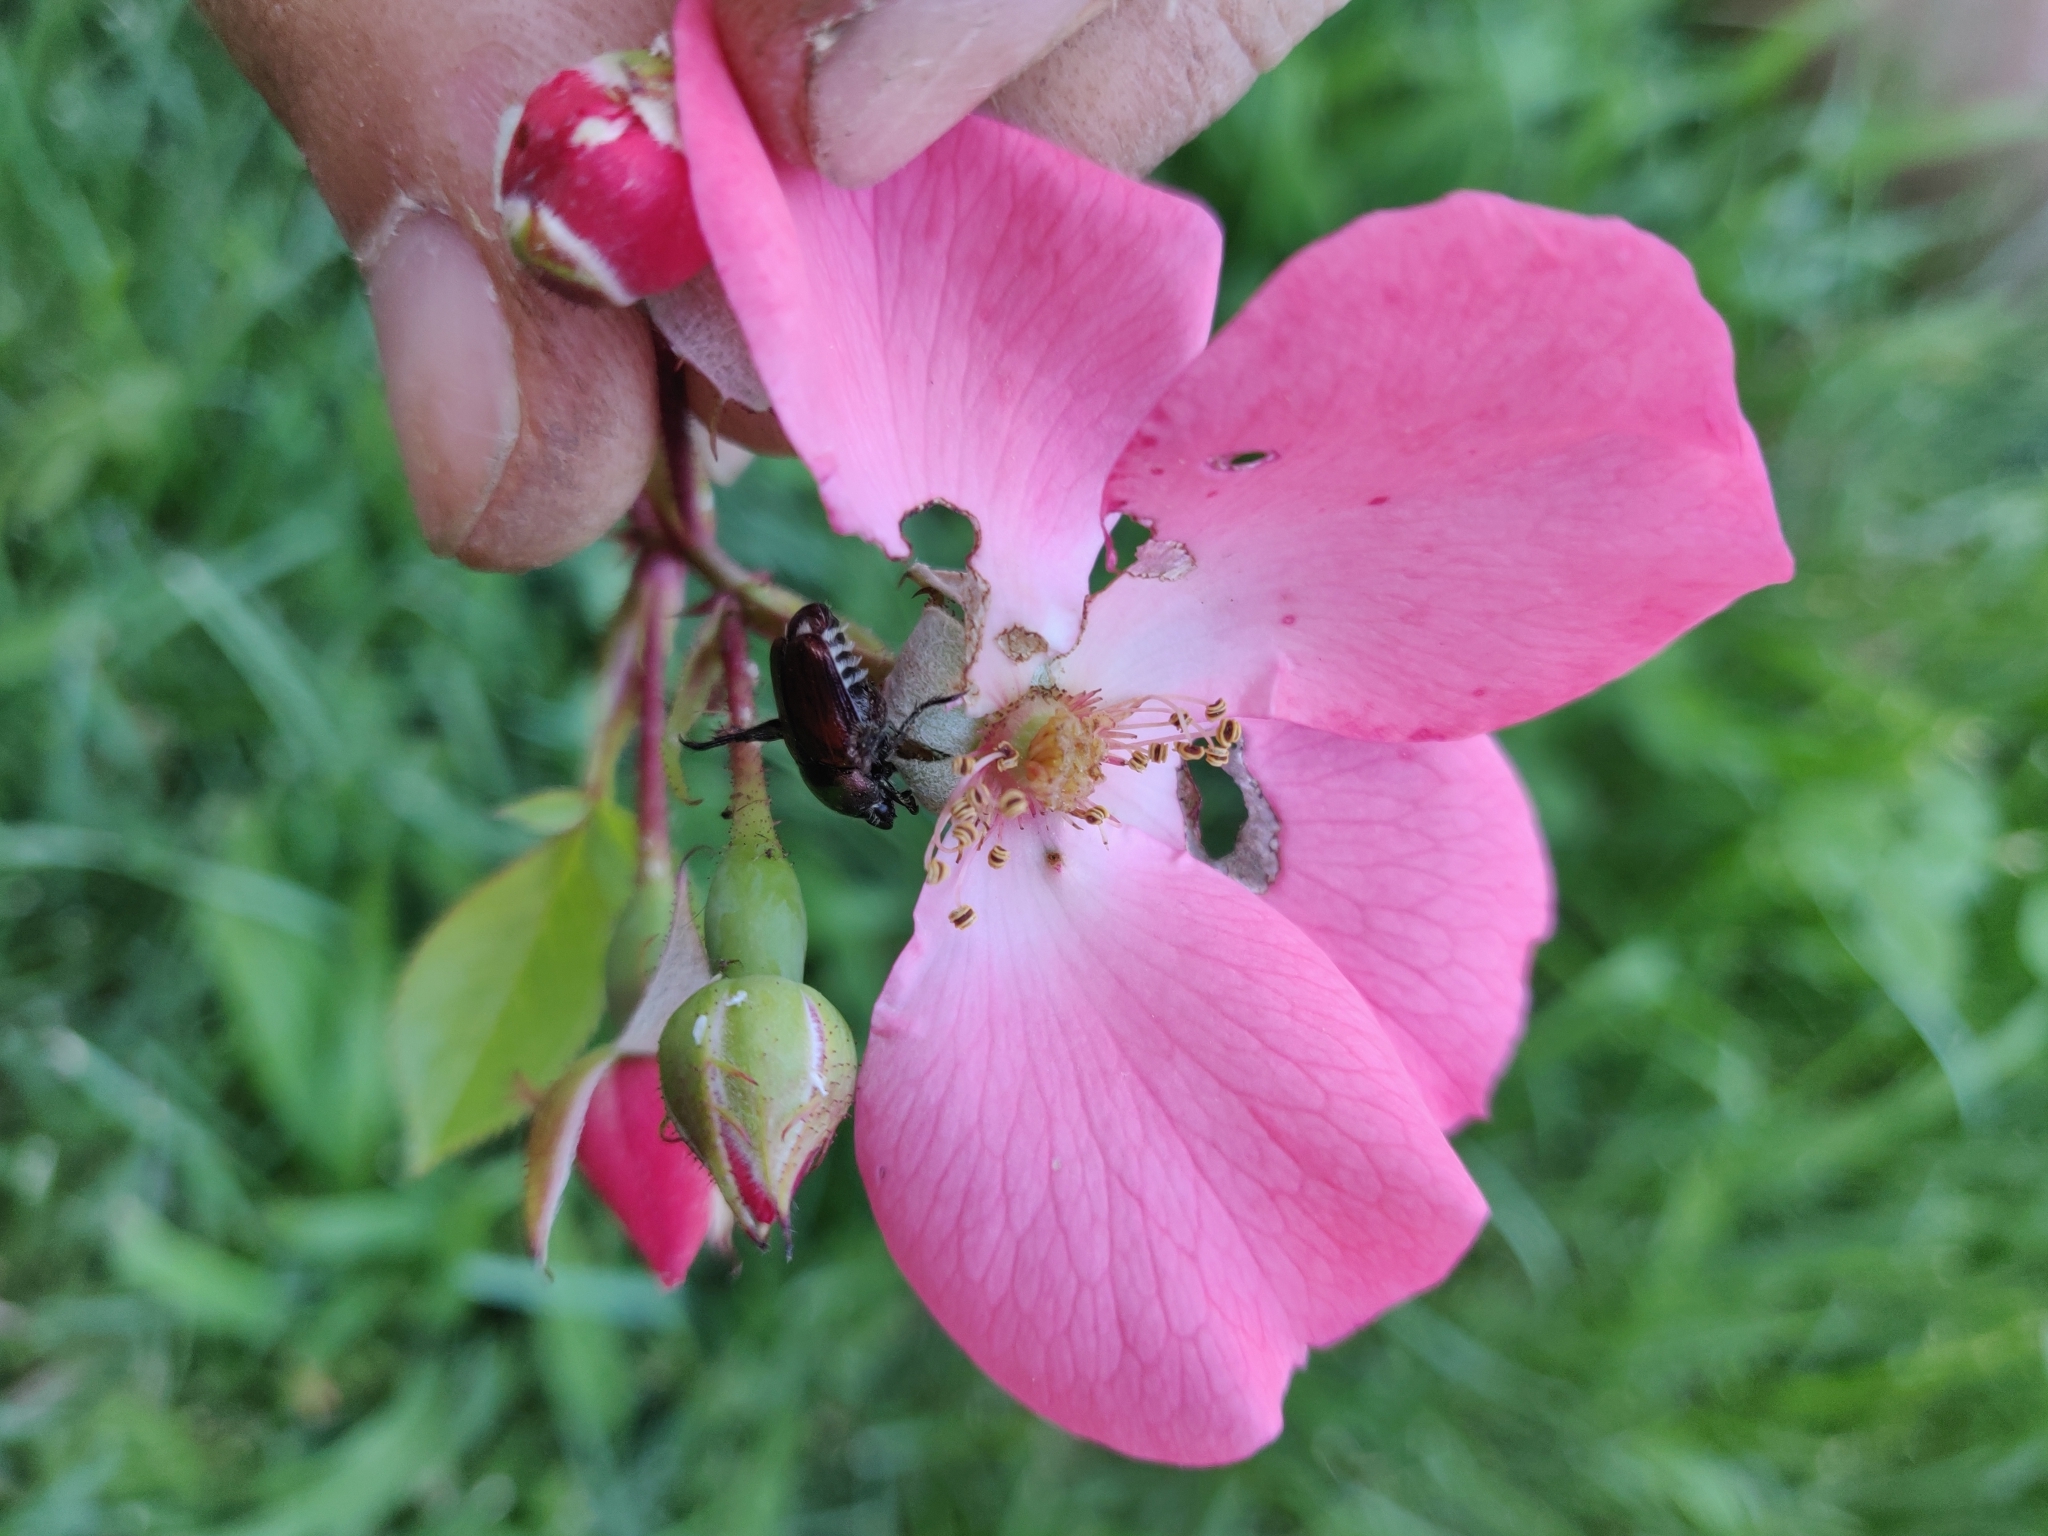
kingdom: Animalia
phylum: Arthropoda
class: Insecta
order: Coleoptera
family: Scarabaeidae
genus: Popillia
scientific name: Popillia japonica
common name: Japanese beetle
